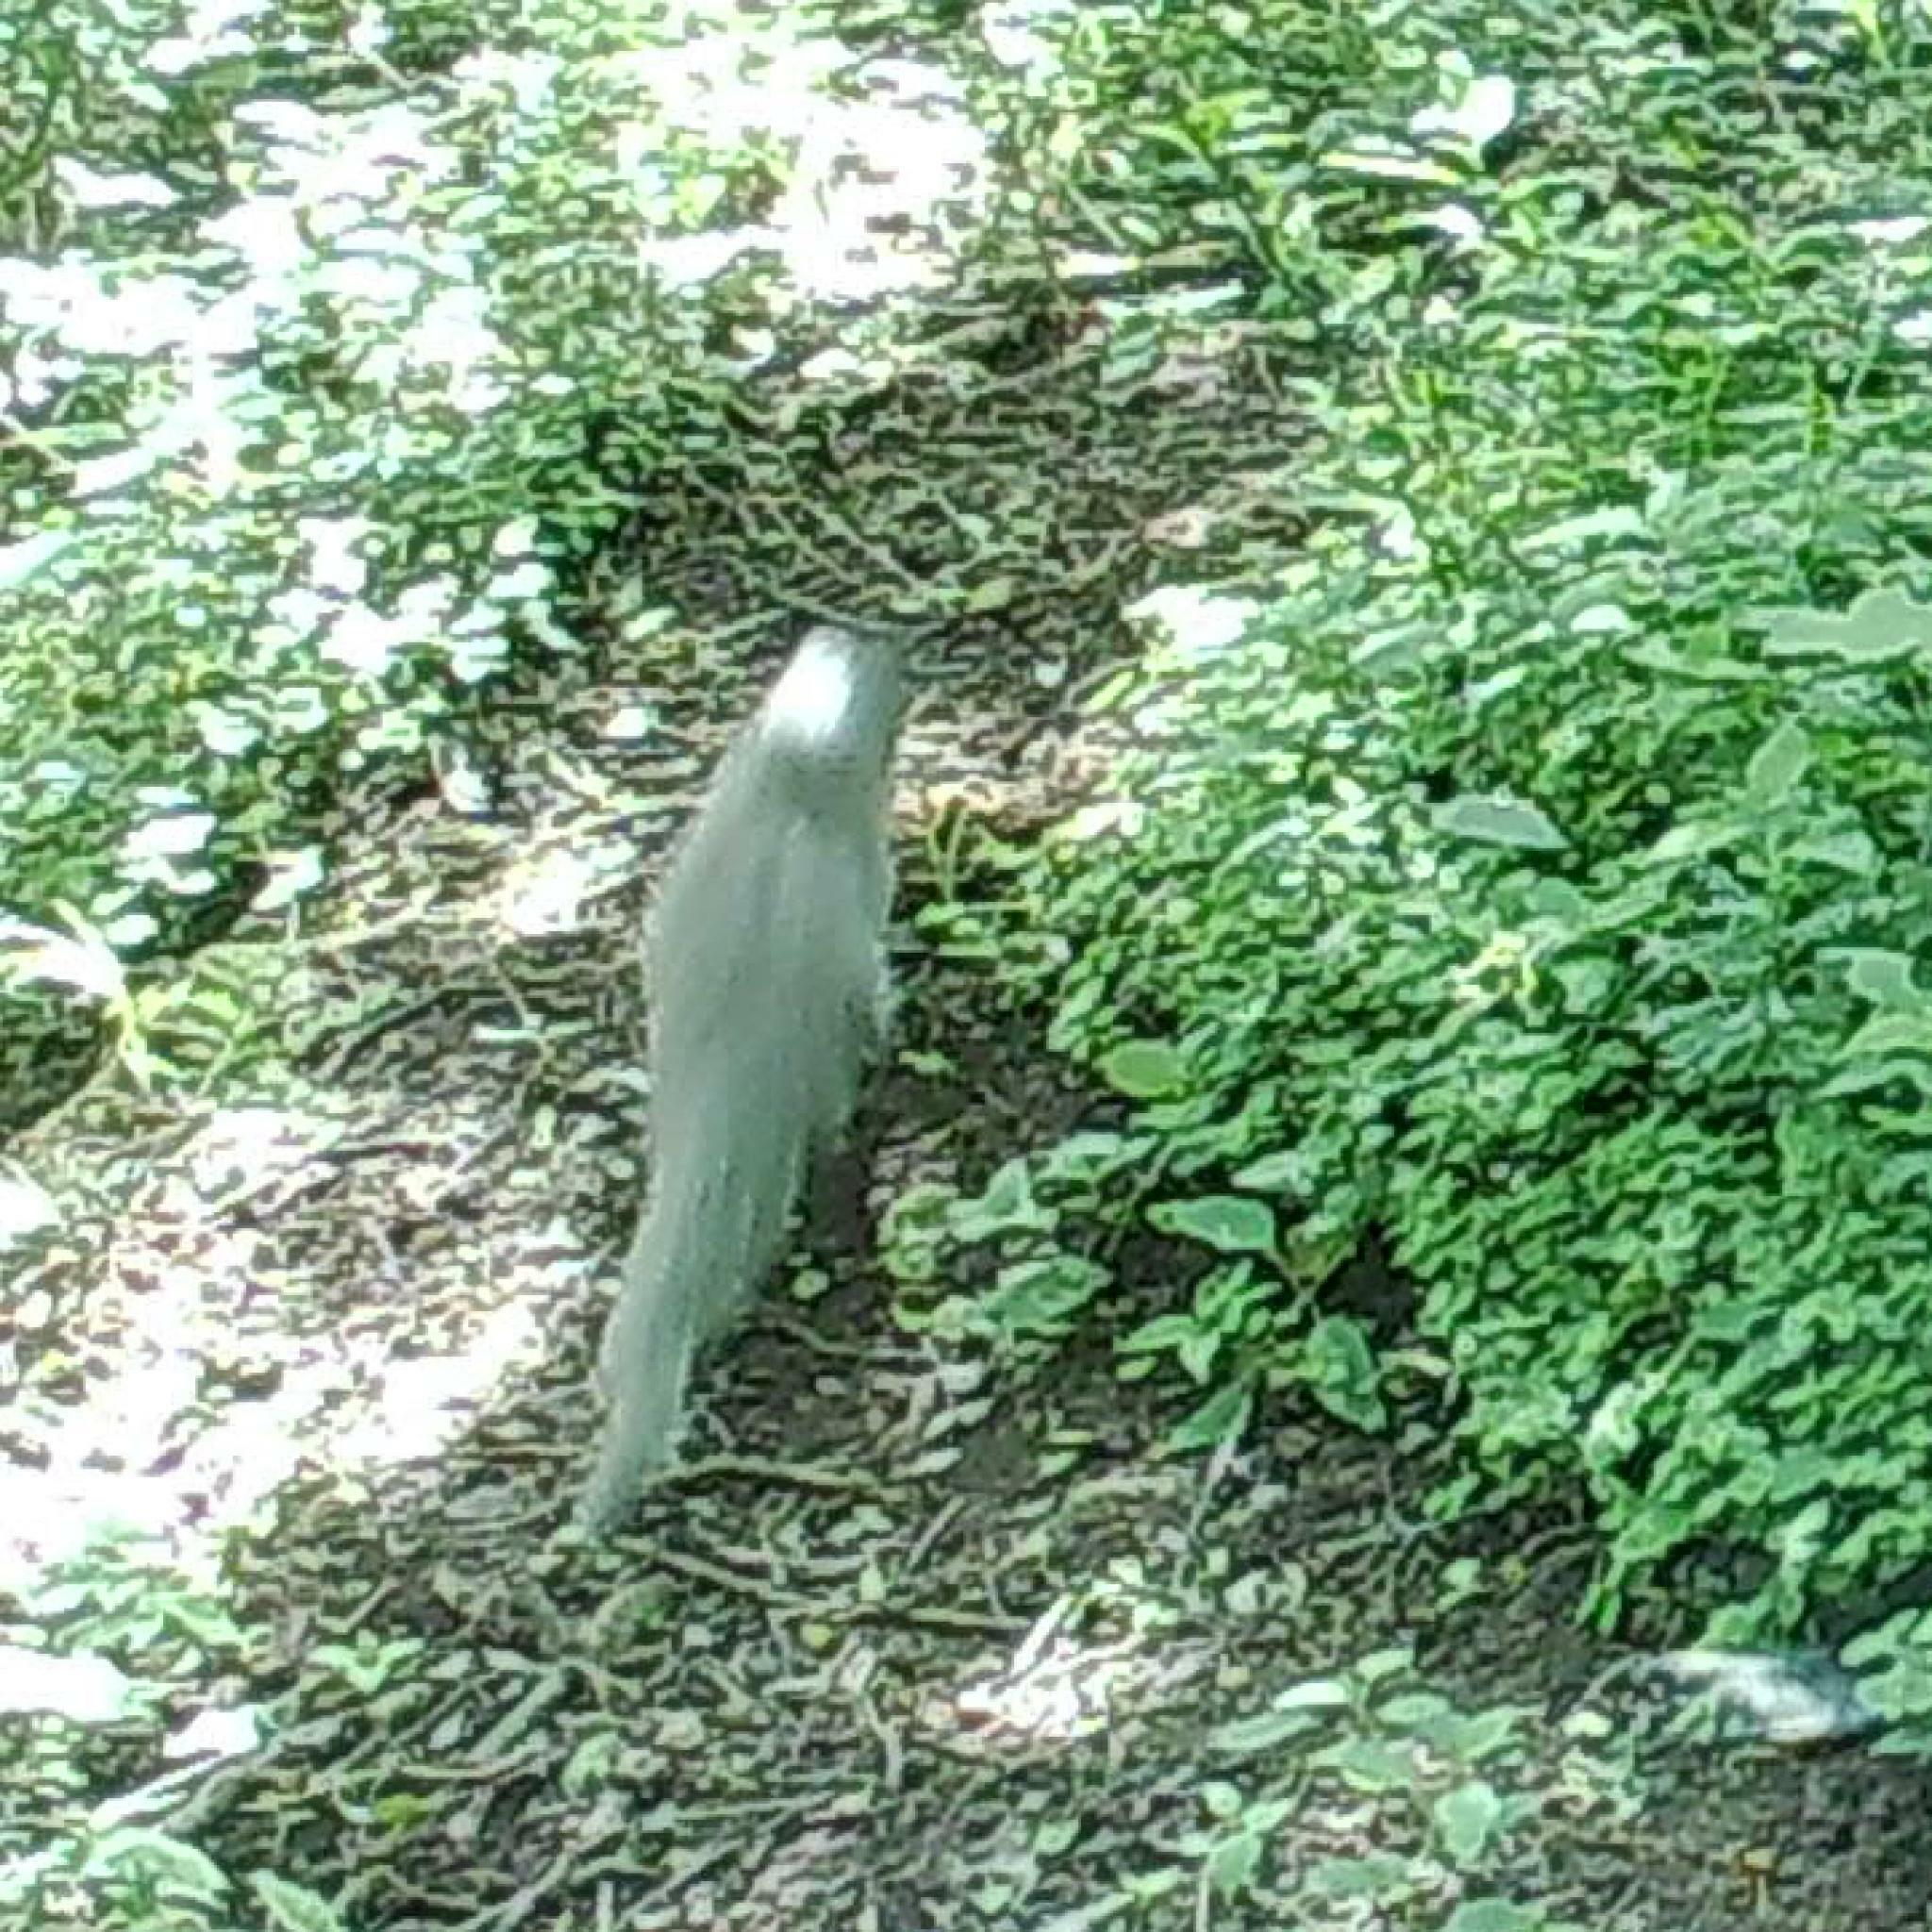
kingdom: Animalia
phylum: Chordata
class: Mammalia
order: Carnivora
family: Herpestidae
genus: Galerella
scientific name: Galerella pulverulenta
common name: Cape gray mongoose
